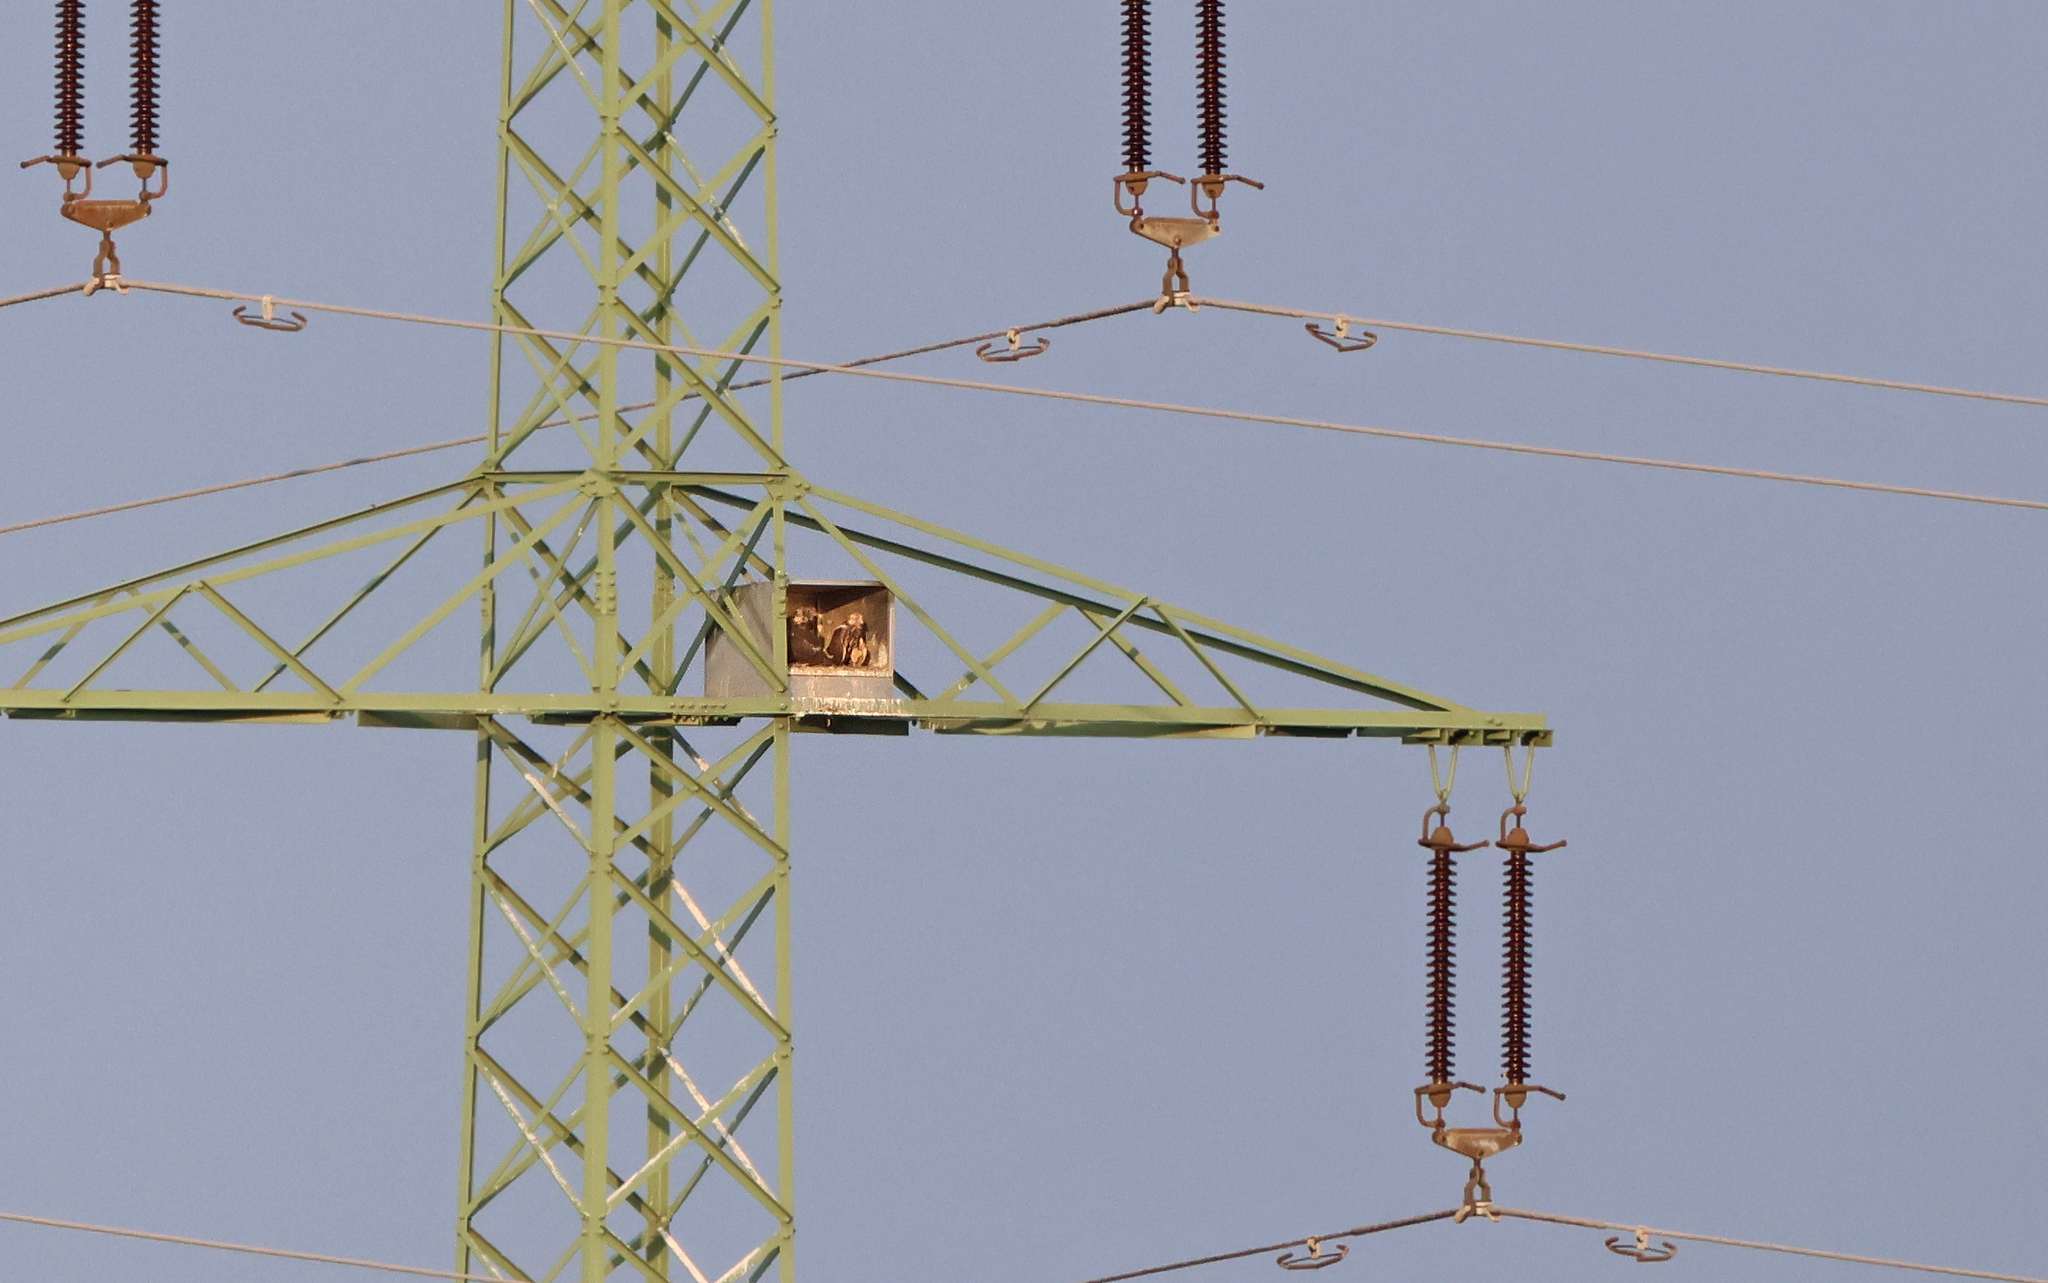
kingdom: Animalia
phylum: Chordata
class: Aves
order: Falconiformes
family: Falconidae
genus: Falco
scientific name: Falco cherrug
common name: Saker falcon
